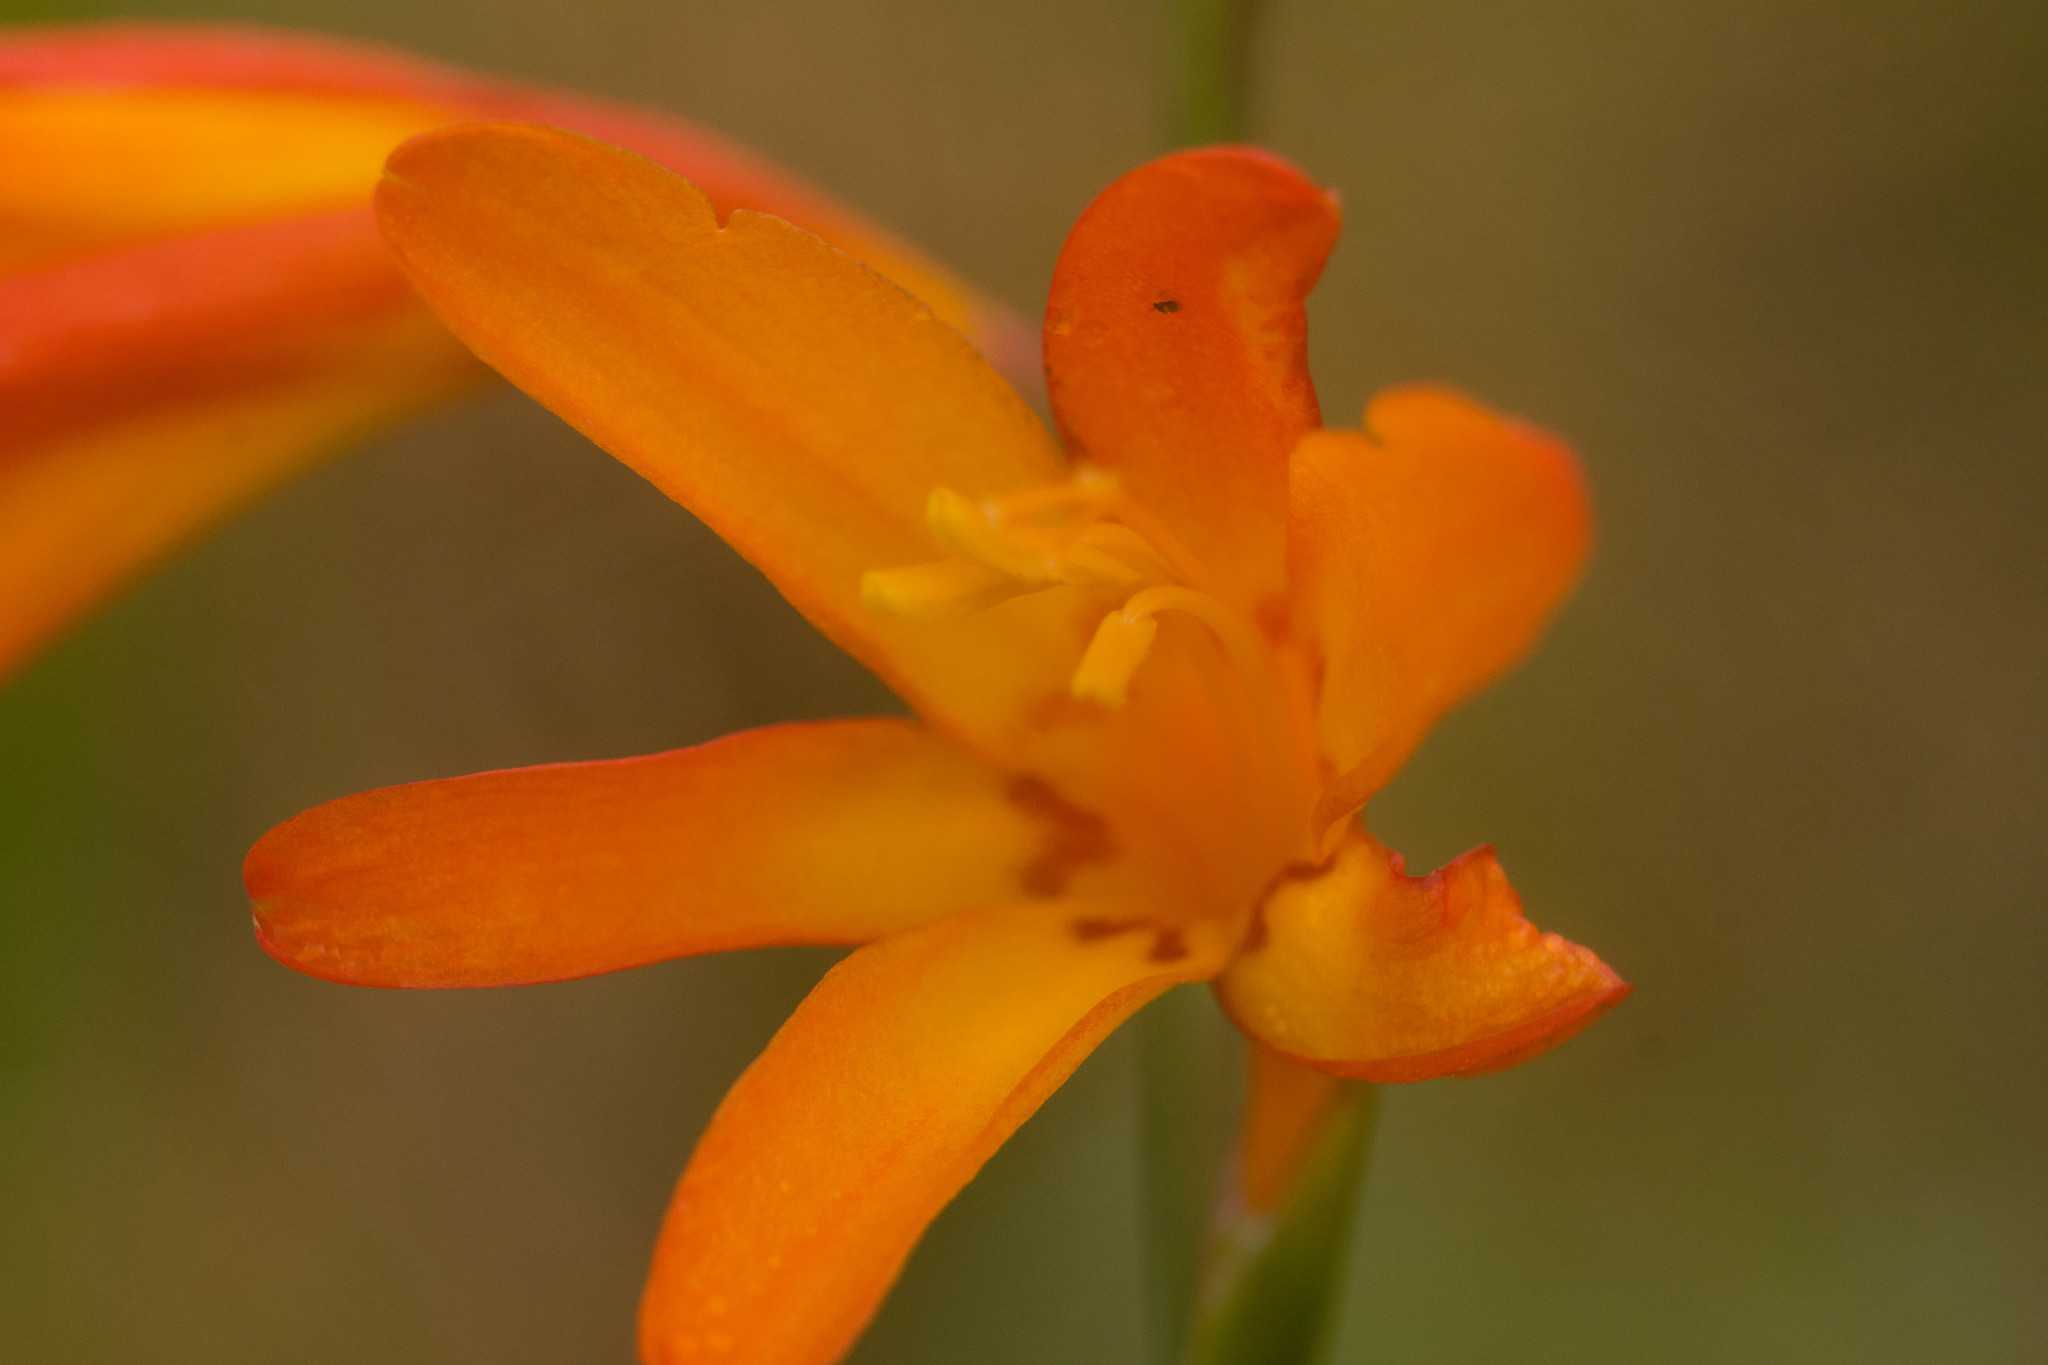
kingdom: Plantae
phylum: Tracheophyta
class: Liliopsida
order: Asparagales
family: Iridaceae
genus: Crocosmia
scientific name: Crocosmia crocosmiiflora
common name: Montbretia
